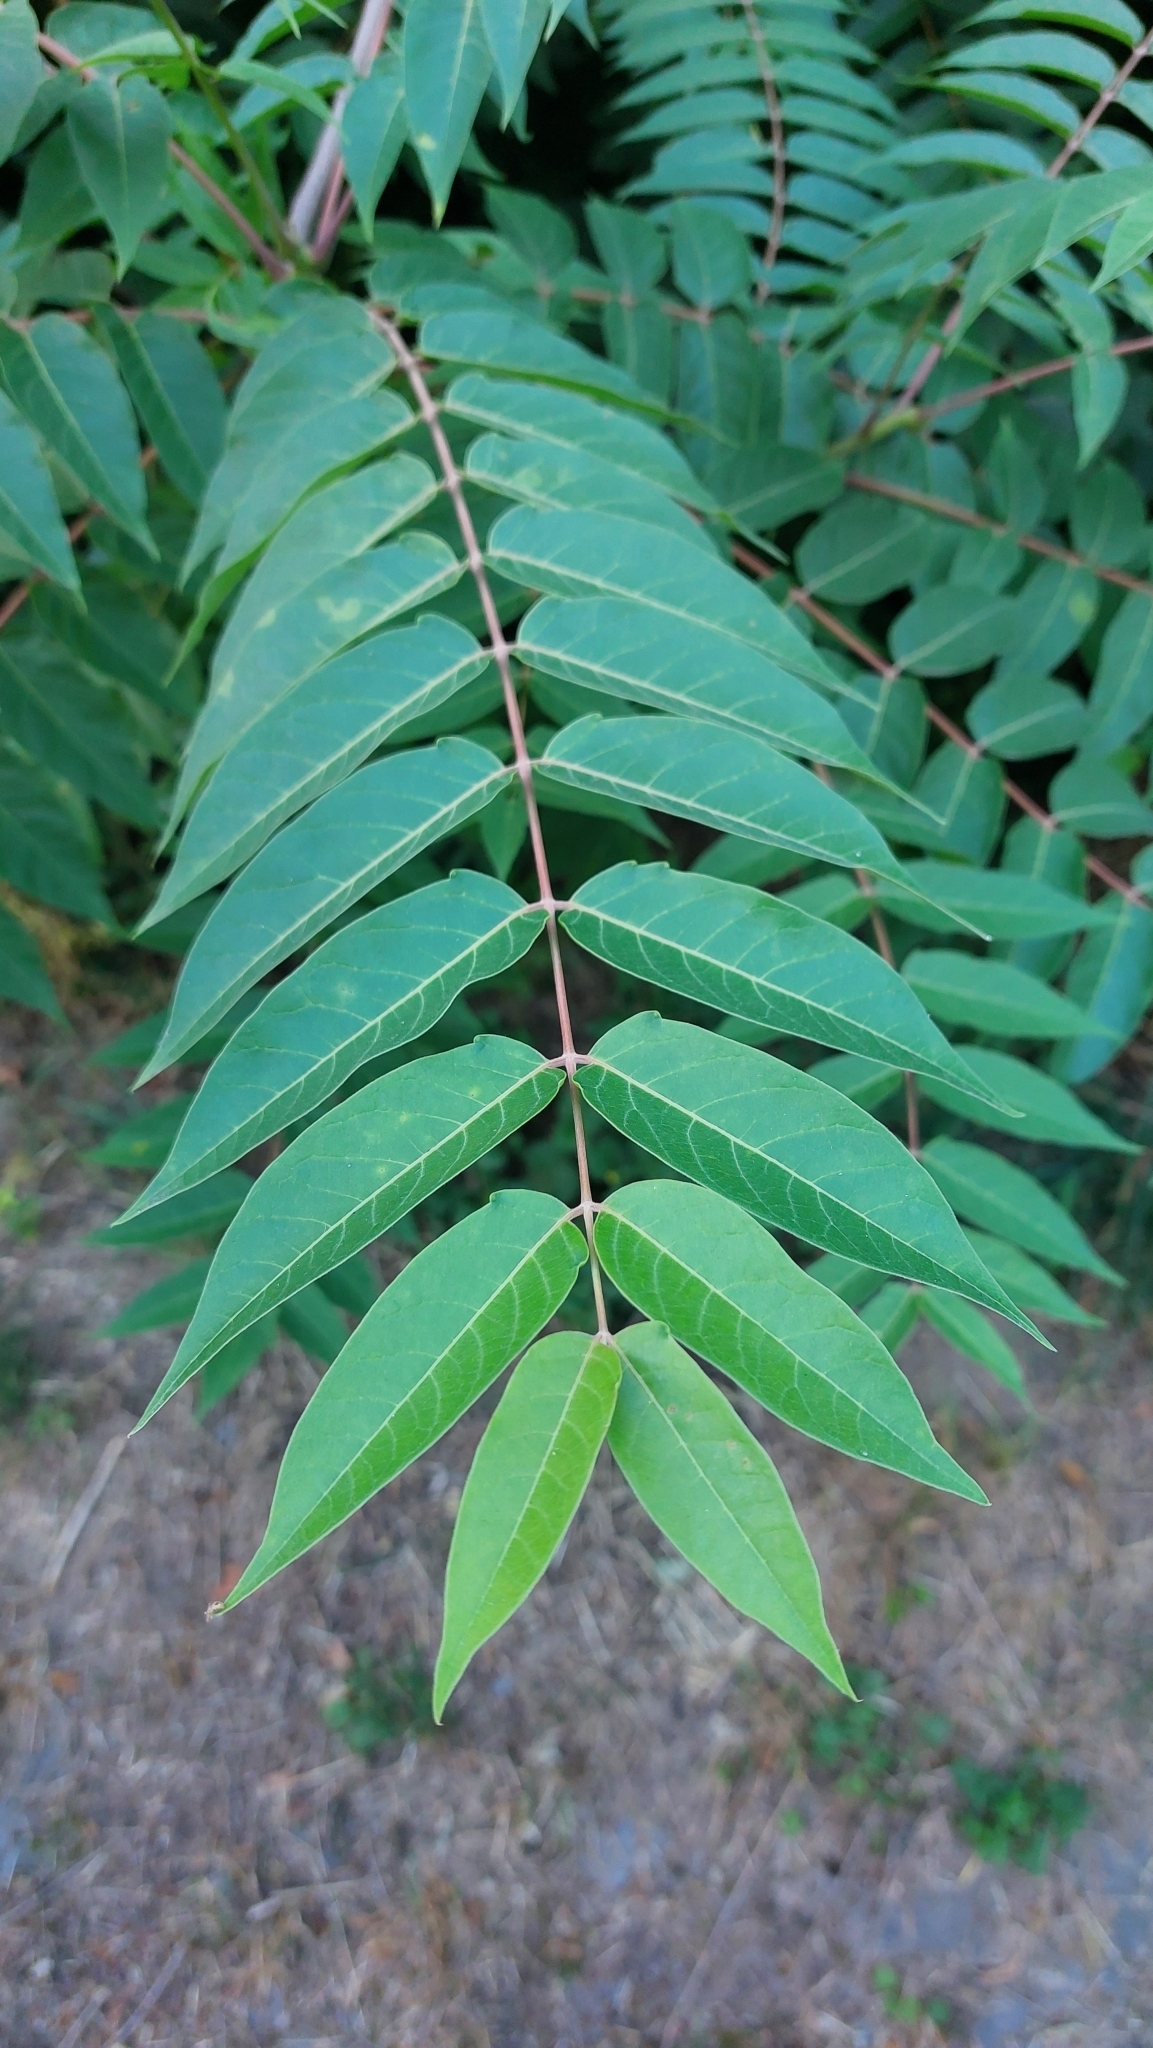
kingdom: Plantae
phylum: Tracheophyta
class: Magnoliopsida
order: Sapindales
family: Simaroubaceae
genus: Ailanthus
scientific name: Ailanthus altissima
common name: Tree-of-heaven
